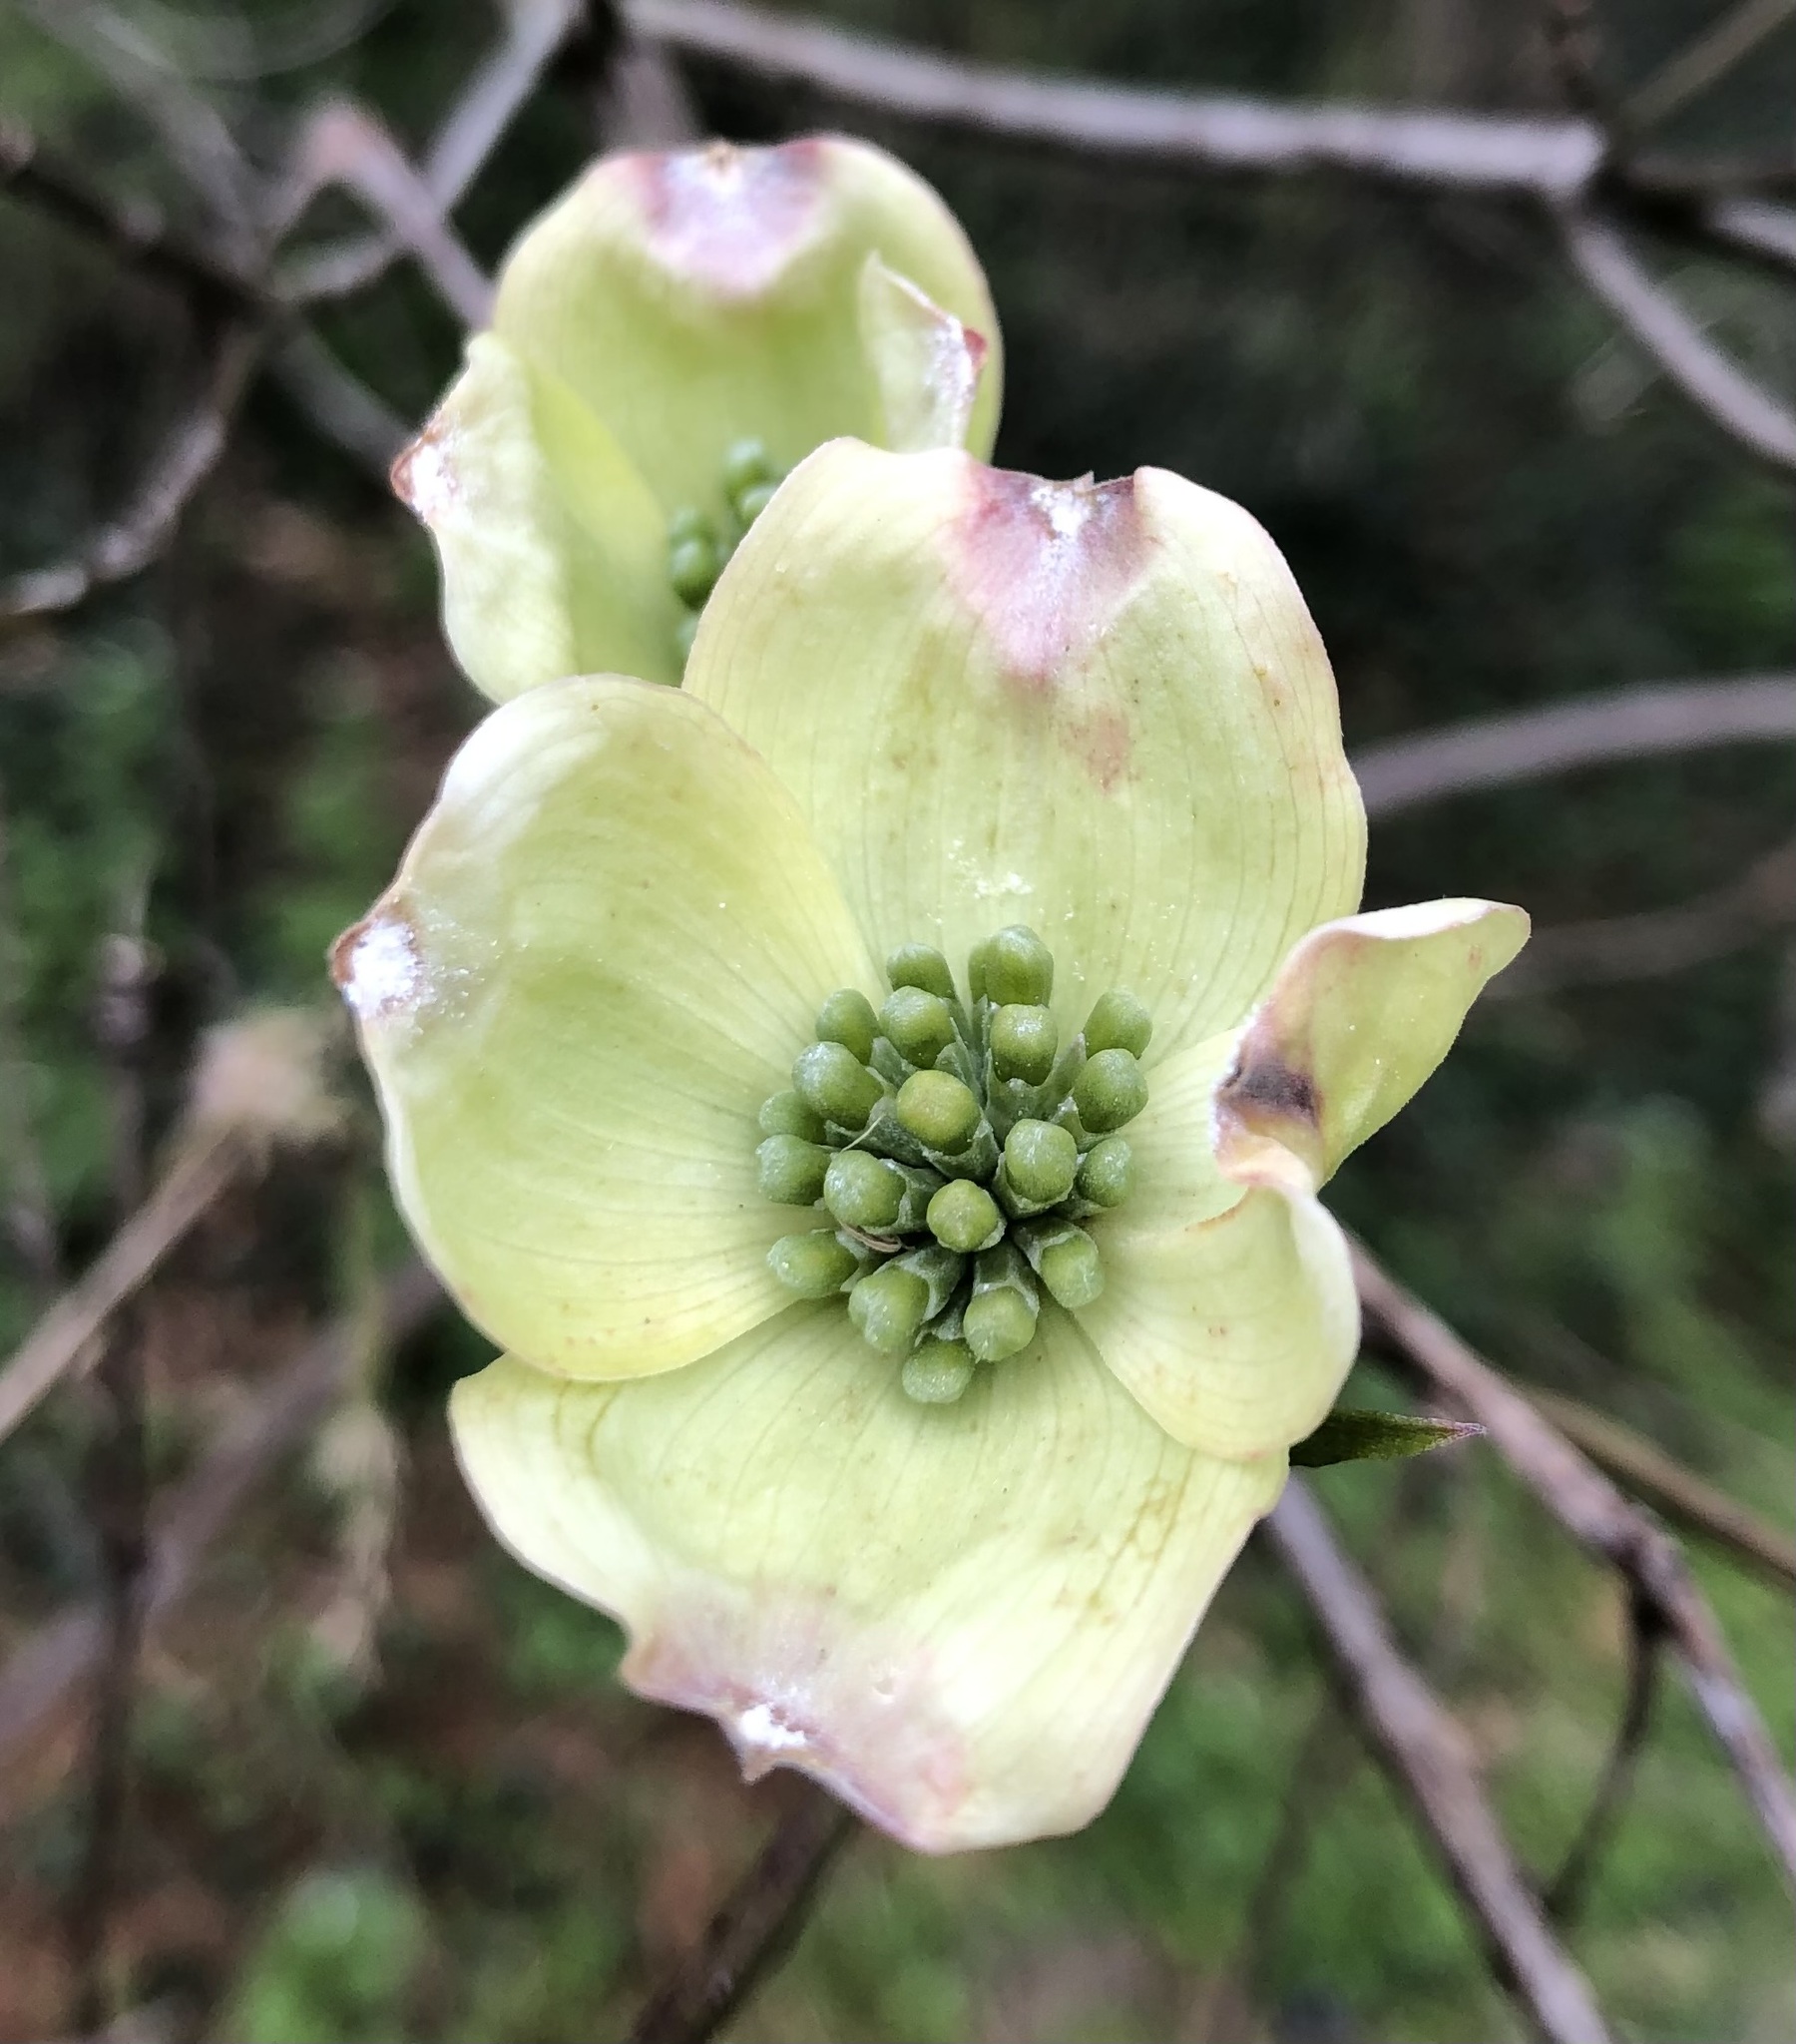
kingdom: Plantae
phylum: Tracheophyta
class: Magnoliopsida
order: Cornales
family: Cornaceae
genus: Cornus
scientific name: Cornus florida
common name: Flowering dogwood
